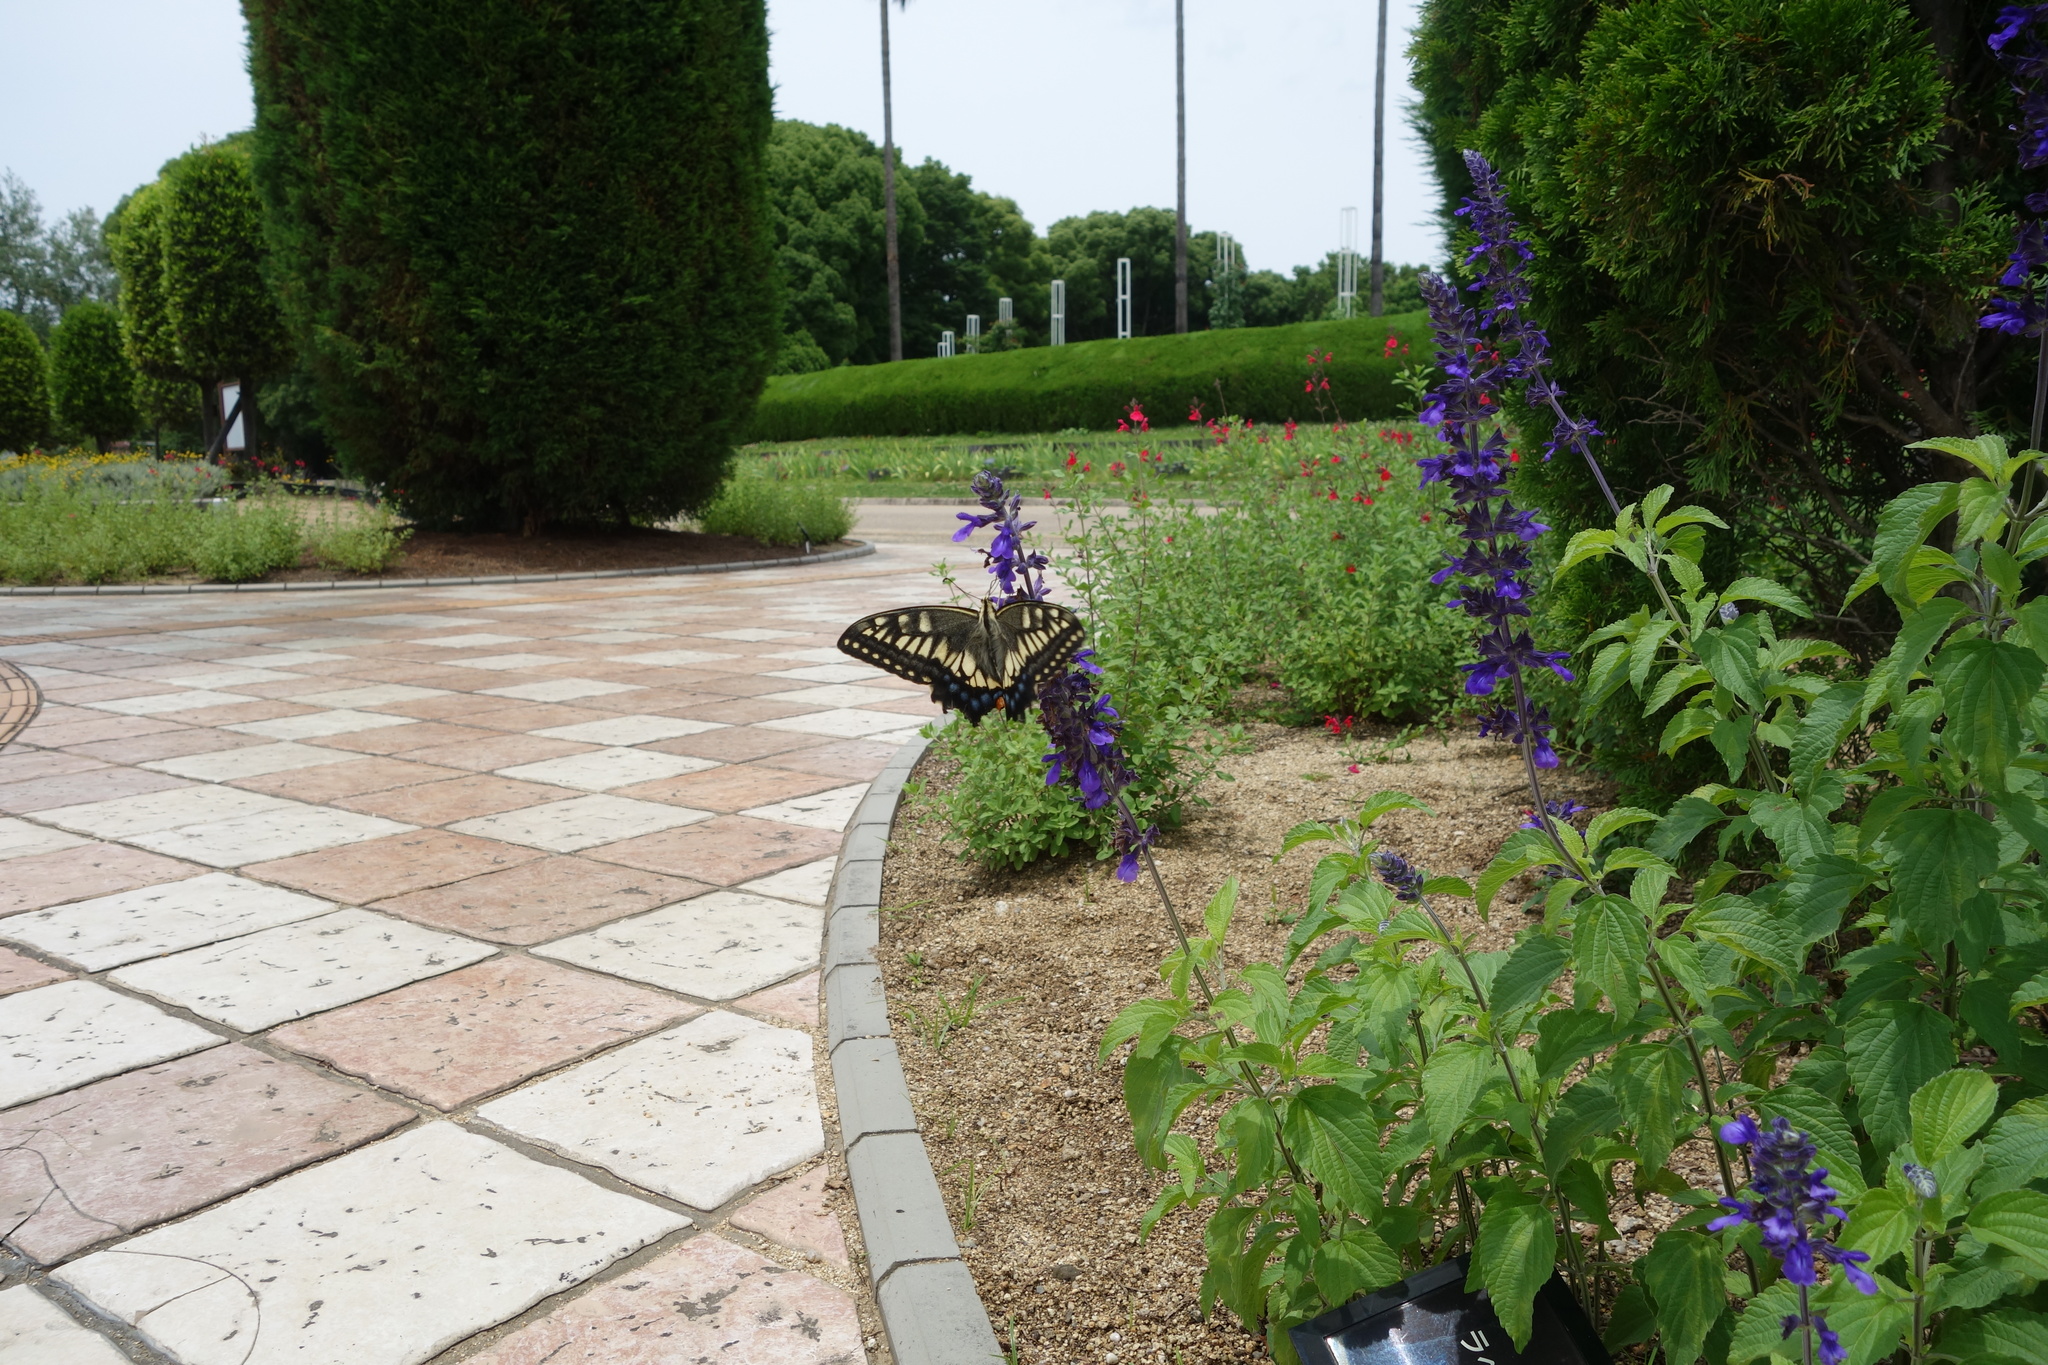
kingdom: Animalia
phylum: Arthropoda
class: Insecta
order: Lepidoptera
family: Papilionidae
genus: Papilio
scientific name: Papilio machaon
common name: Swallowtail
